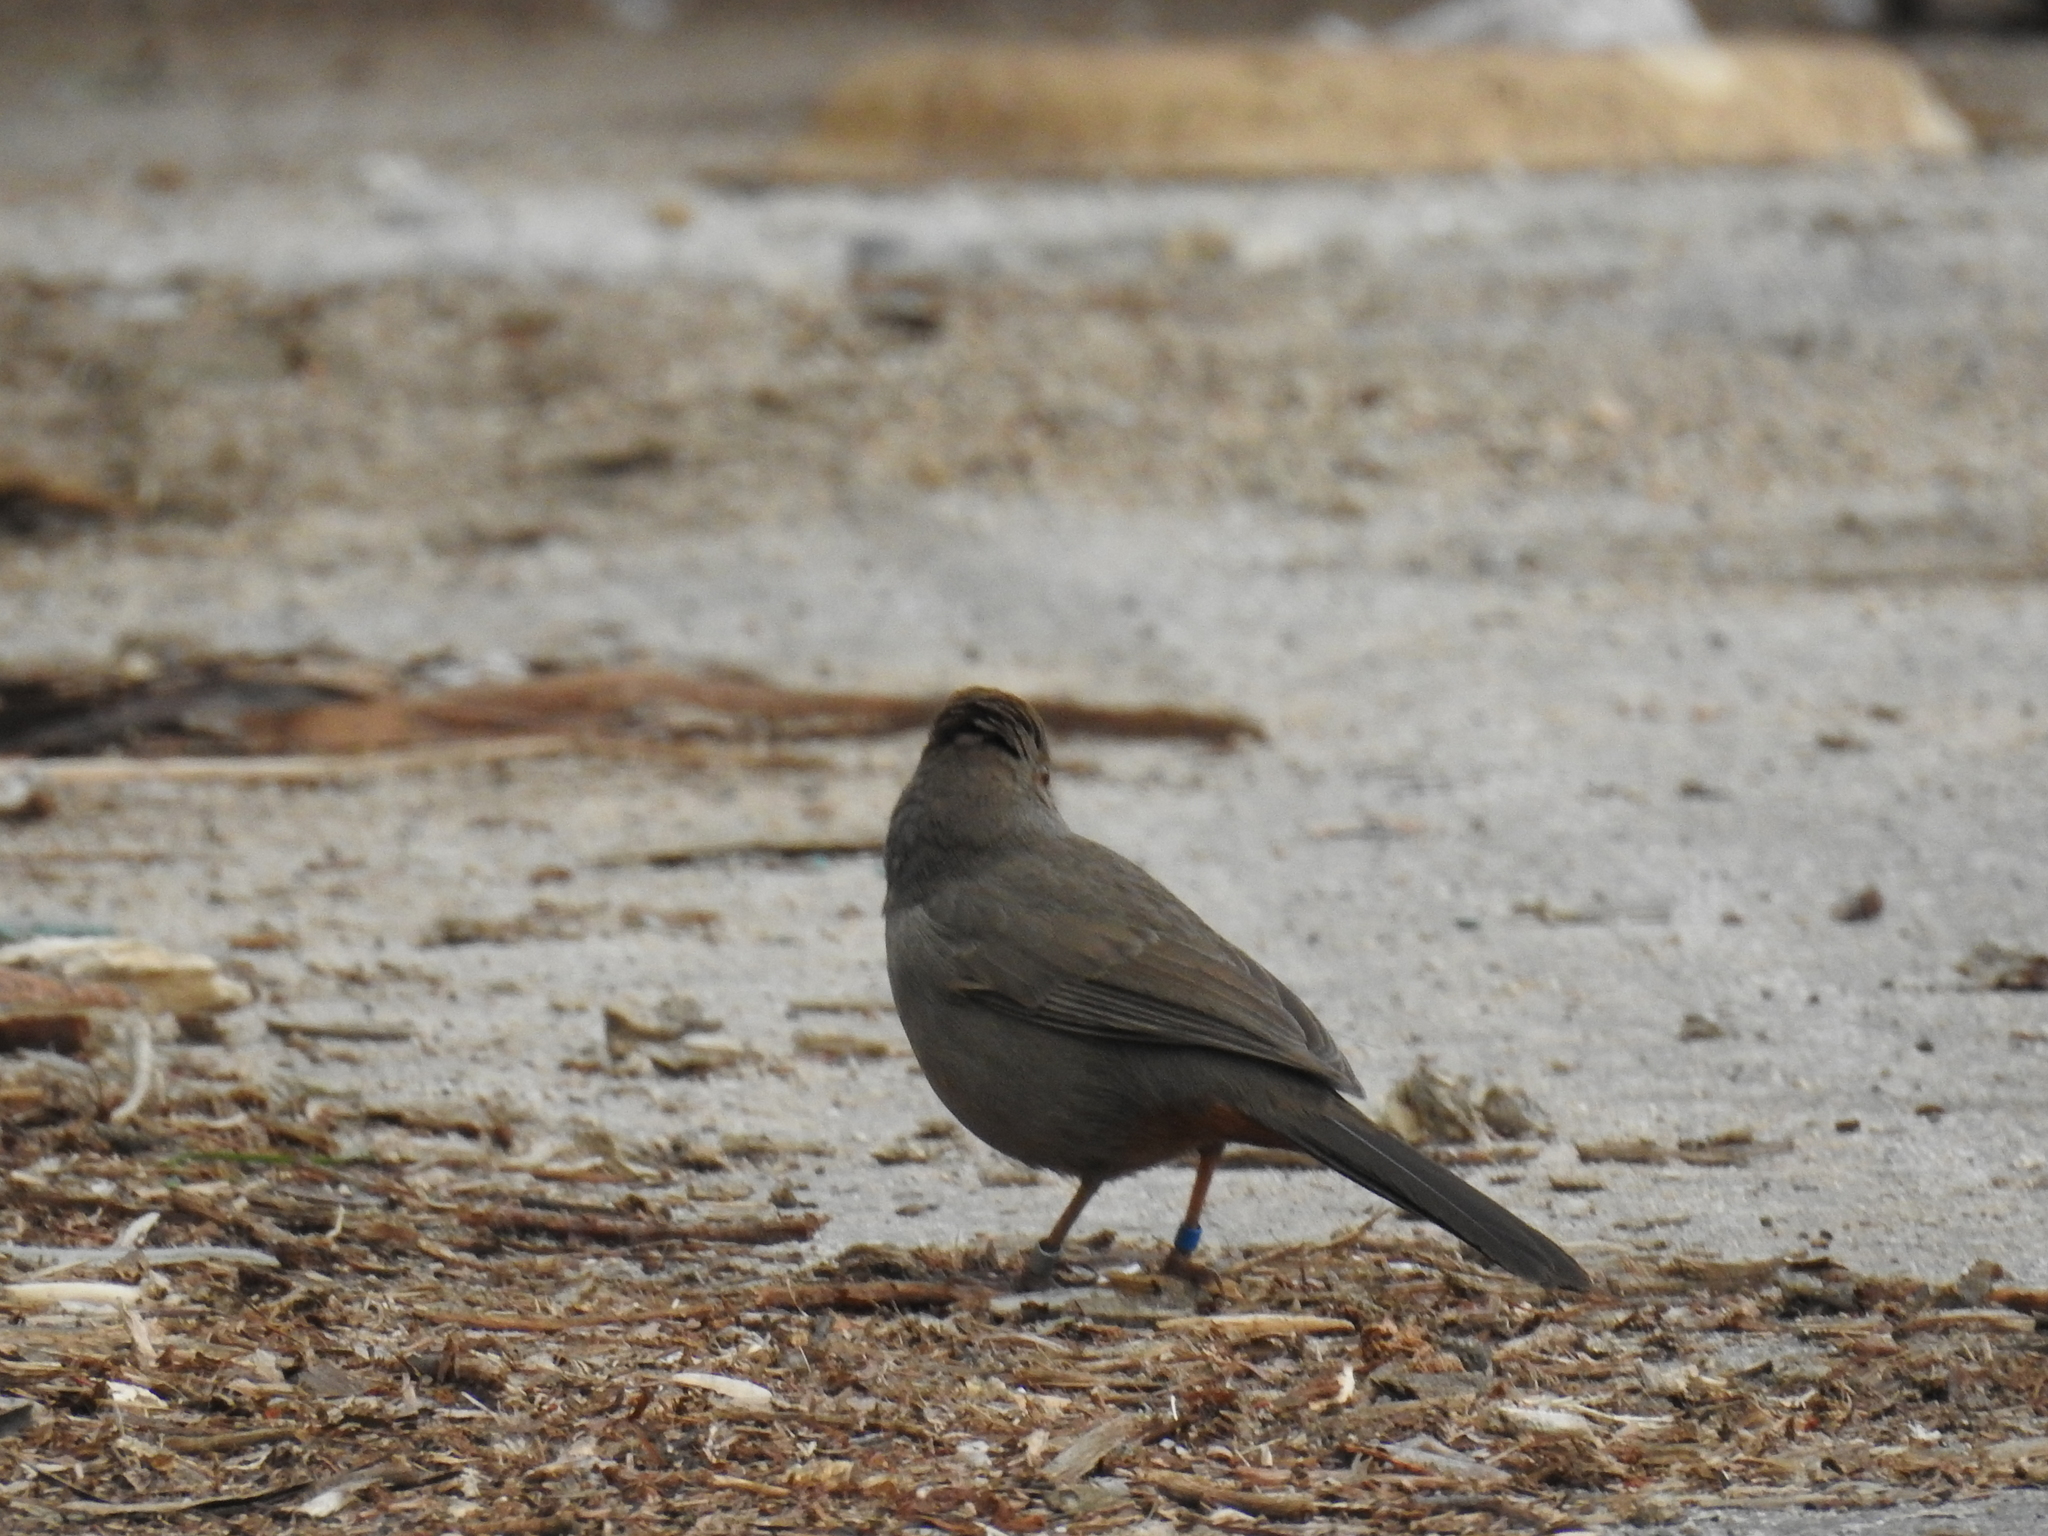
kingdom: Animalia
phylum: Chordata
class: Aves
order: Passeriformes
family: Passerellidae
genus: Melozone
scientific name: Melozone crissalis
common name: California towhee
